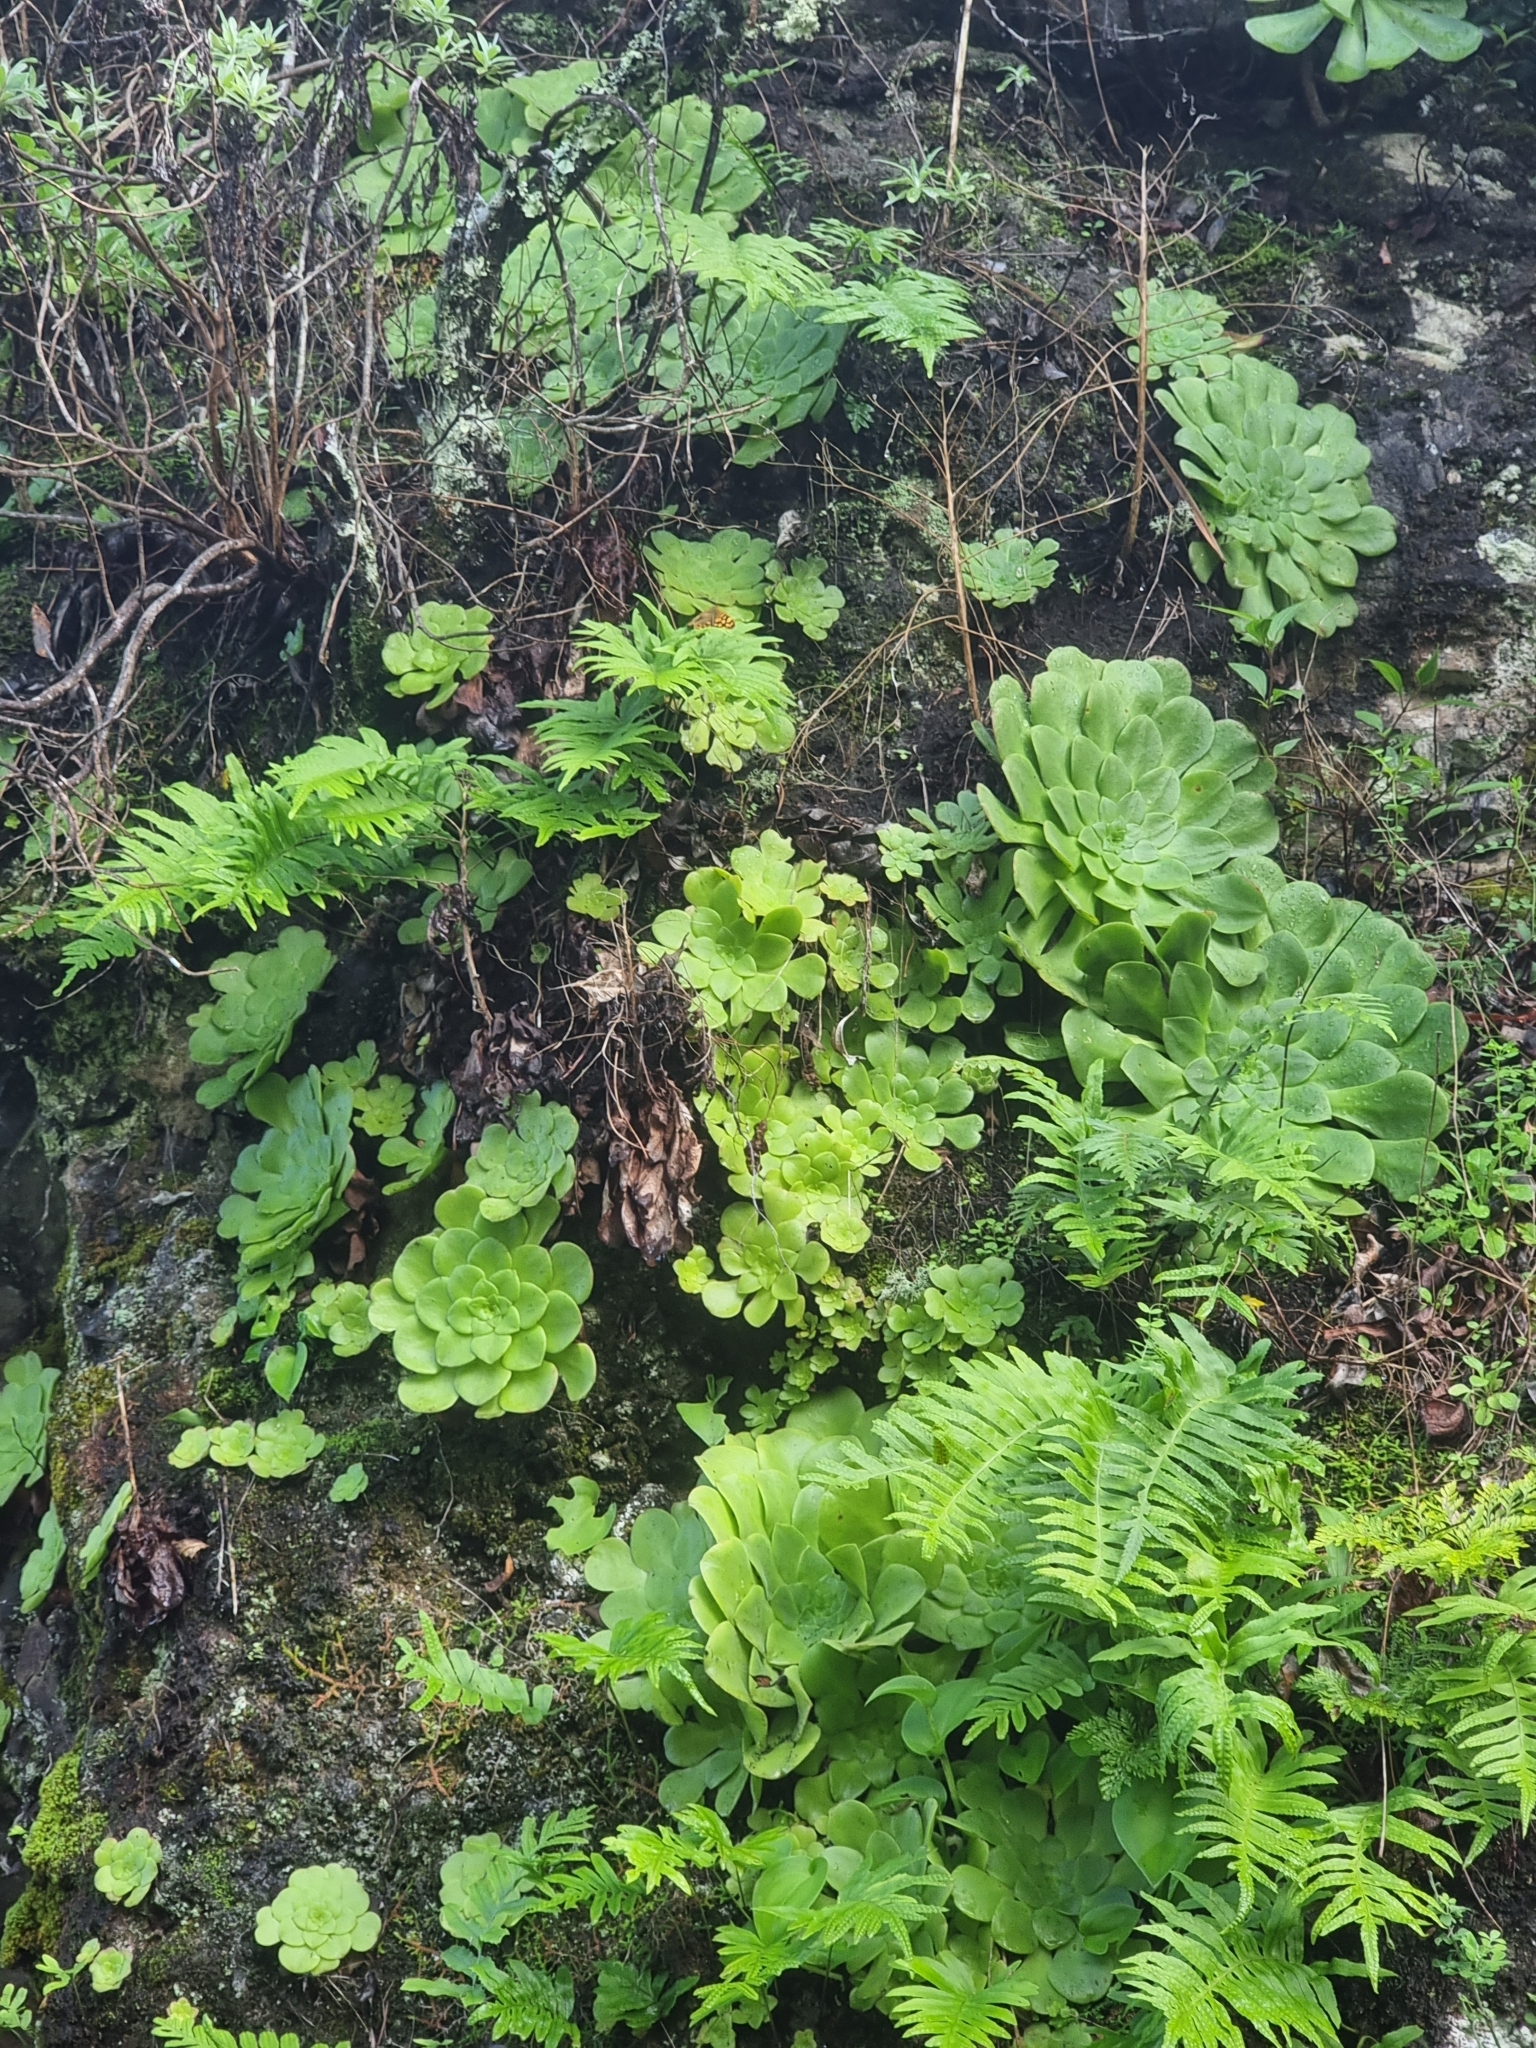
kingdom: Plantae
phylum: Tracheophyta
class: Magnoliopsida
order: Saxifragales
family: Crassulaceae
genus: Aeonium
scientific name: Aeonium glandulosum
